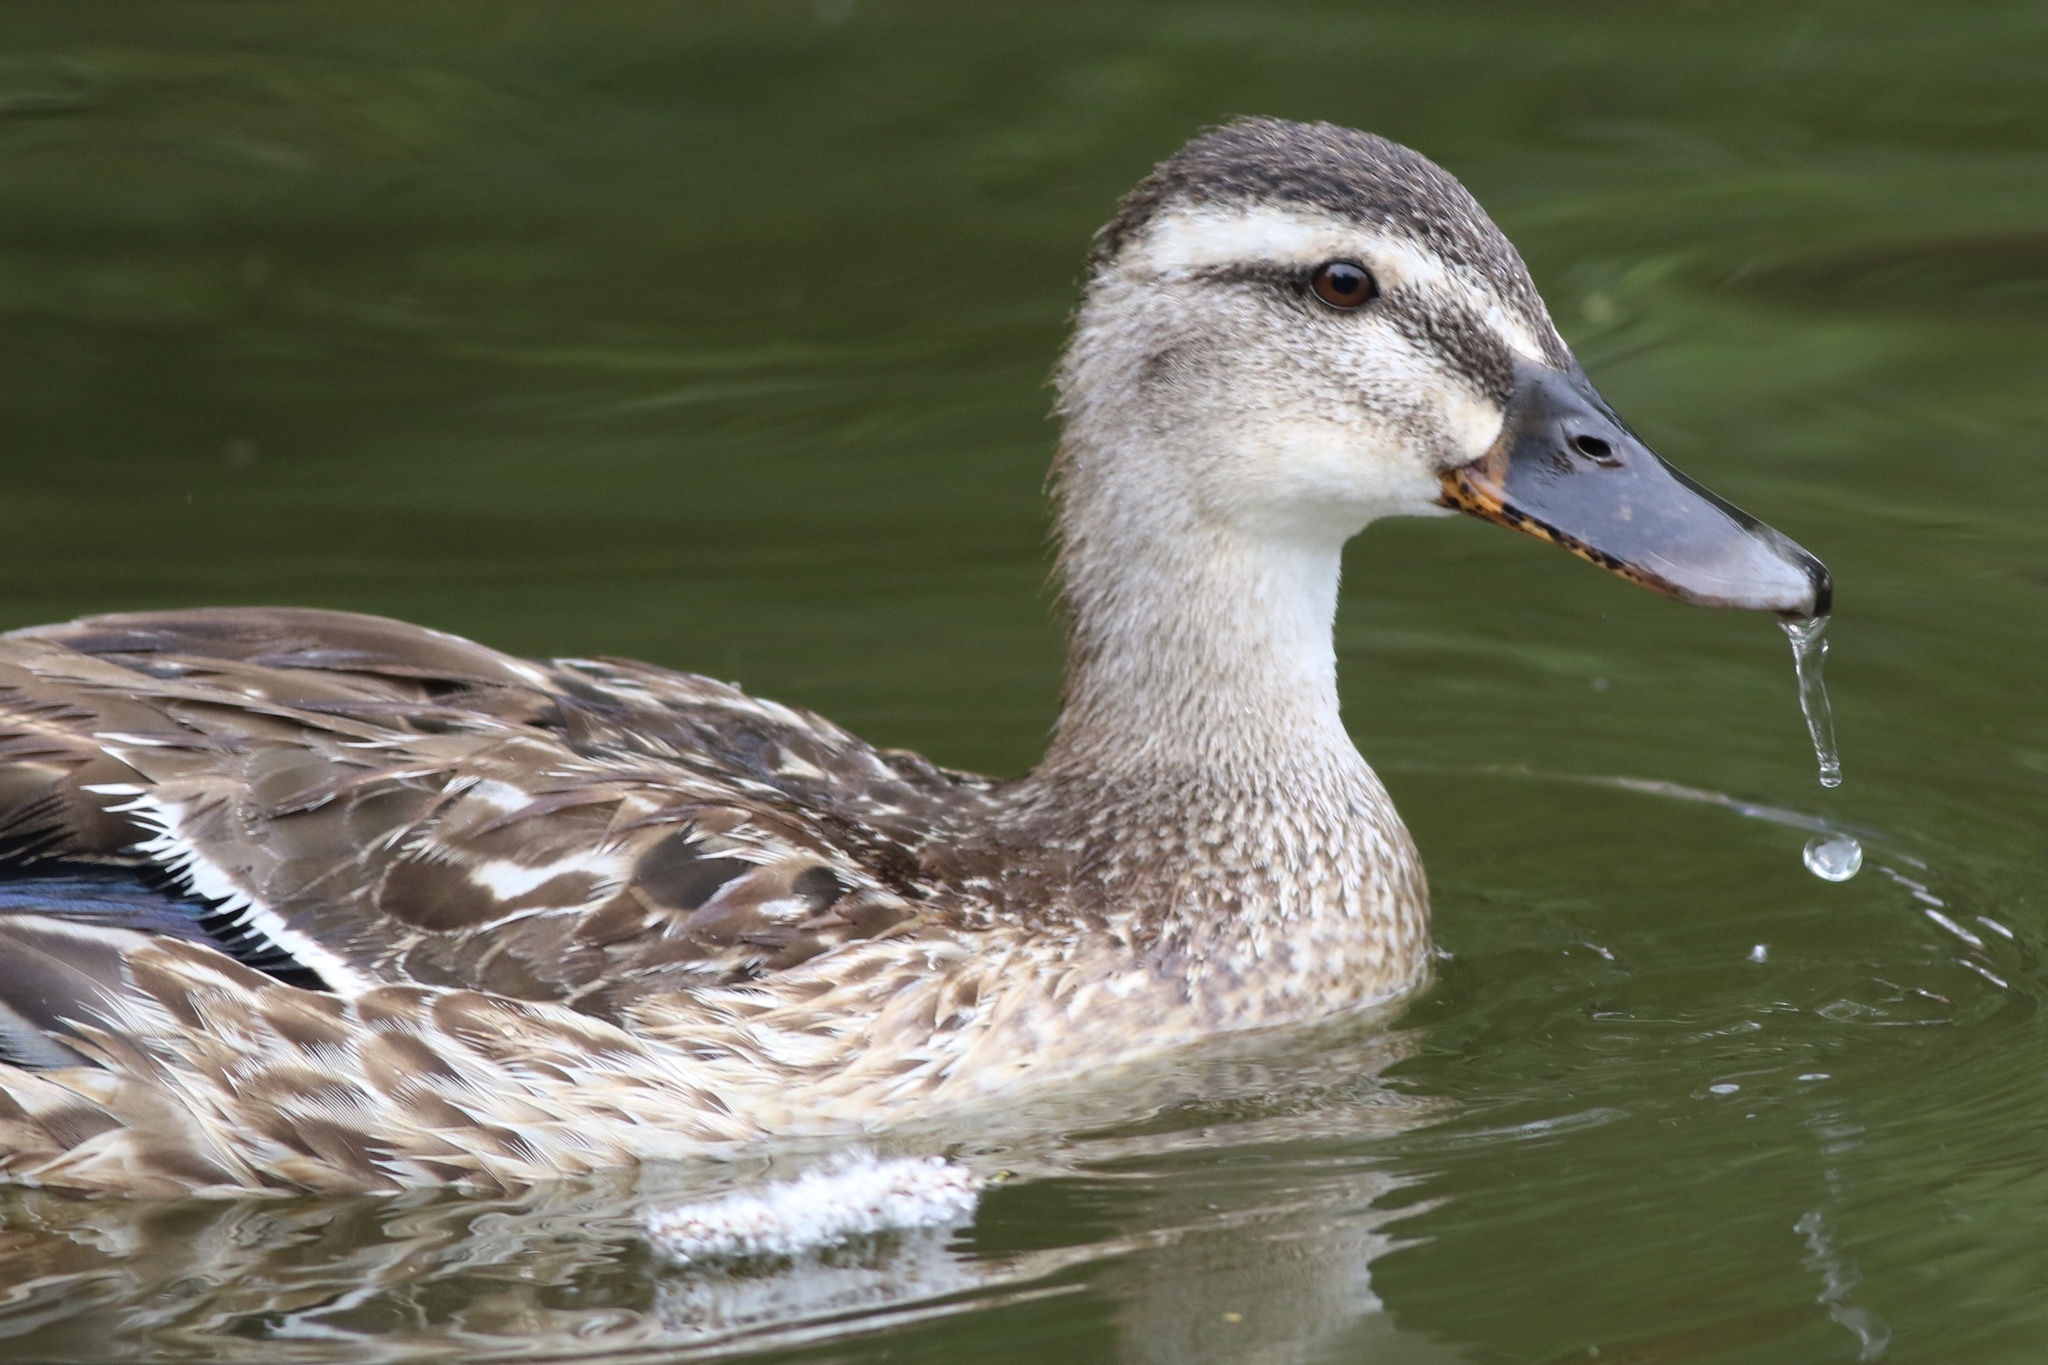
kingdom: Animalia
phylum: Chordata
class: Aves
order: Anseriformes
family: Anatidae
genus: Anas
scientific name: Anas platyrhynchos
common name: Mallard
